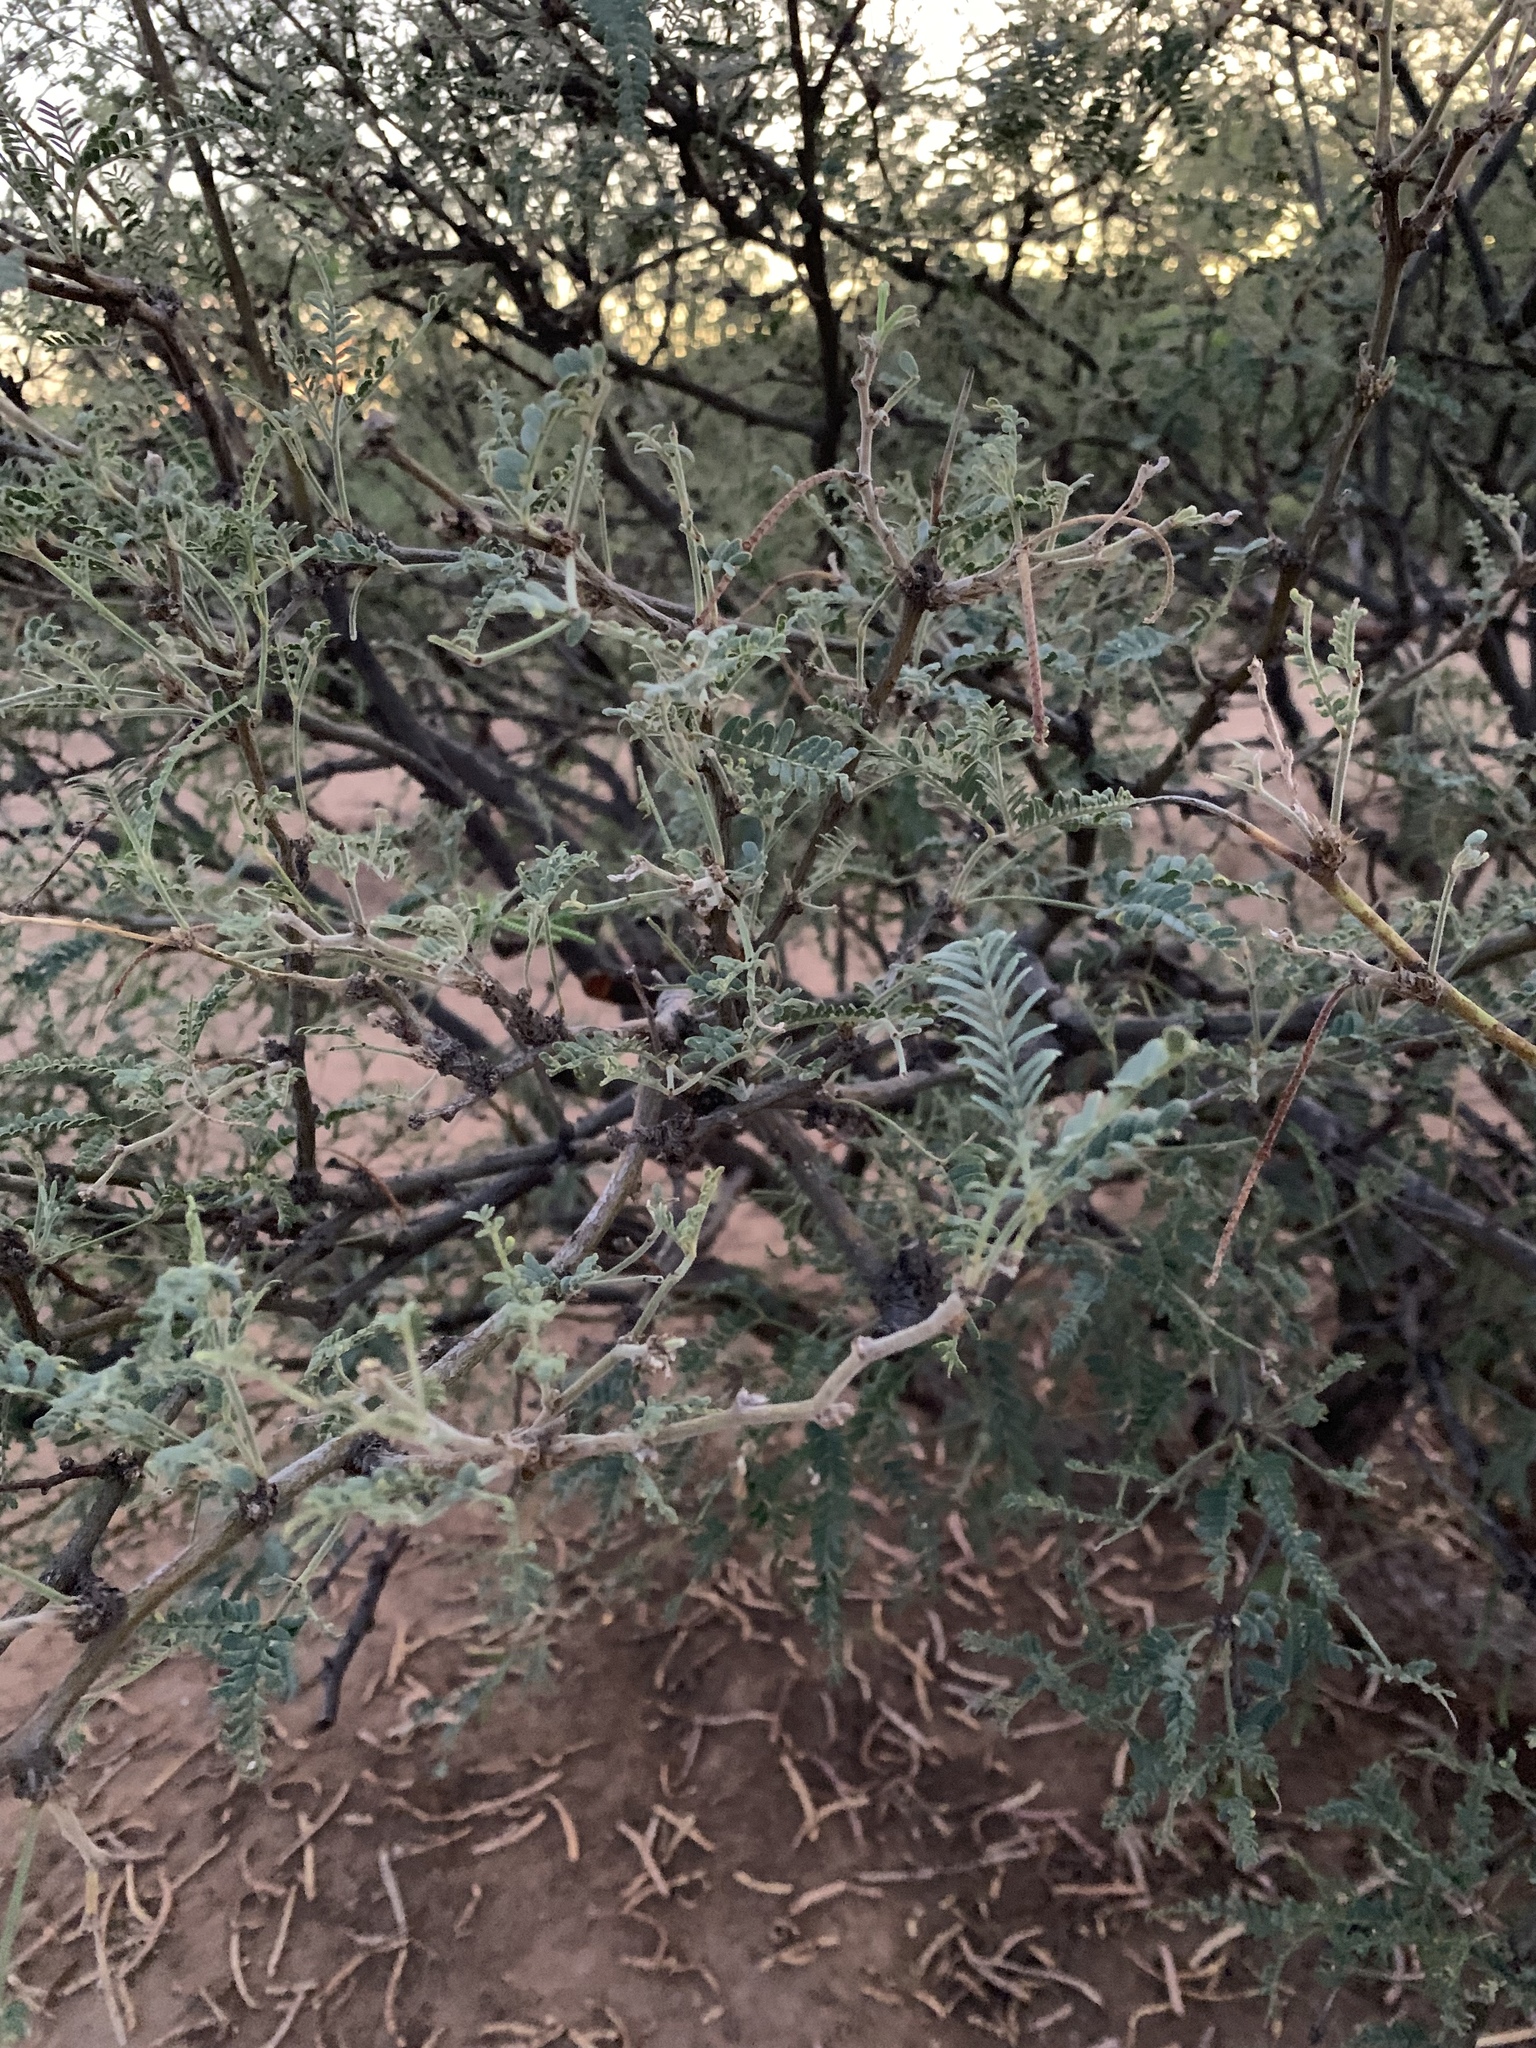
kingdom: Plantae
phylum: Tracheophyta
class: Magnoliopsida
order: Fabales
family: Fabaceae
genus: Prosopis
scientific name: Prosopis velutina
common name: Velvet mesquite
